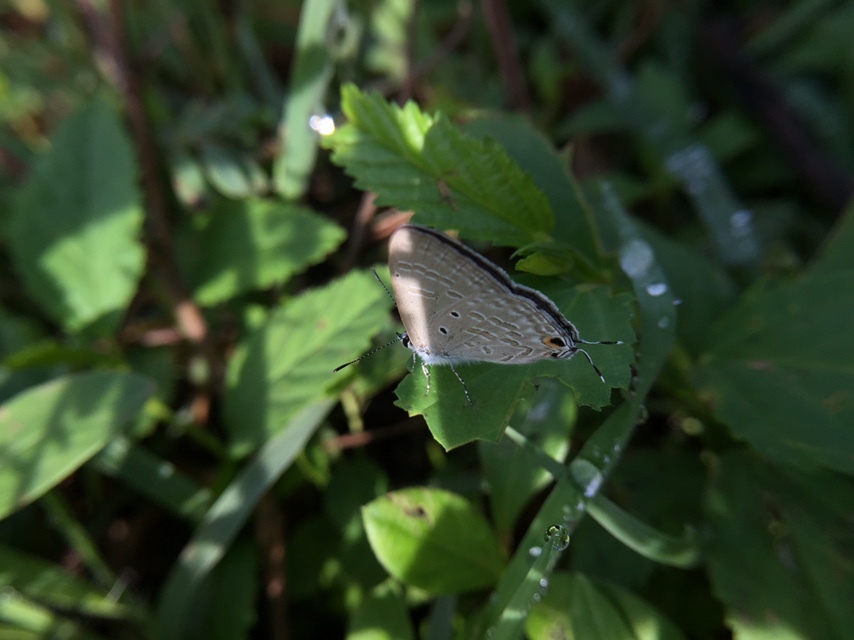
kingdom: Animalia
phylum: Arthropoda
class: Insecta
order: Lepidoptera
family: Lycaenidae
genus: Catochrysops
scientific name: Catochrysops strabo
